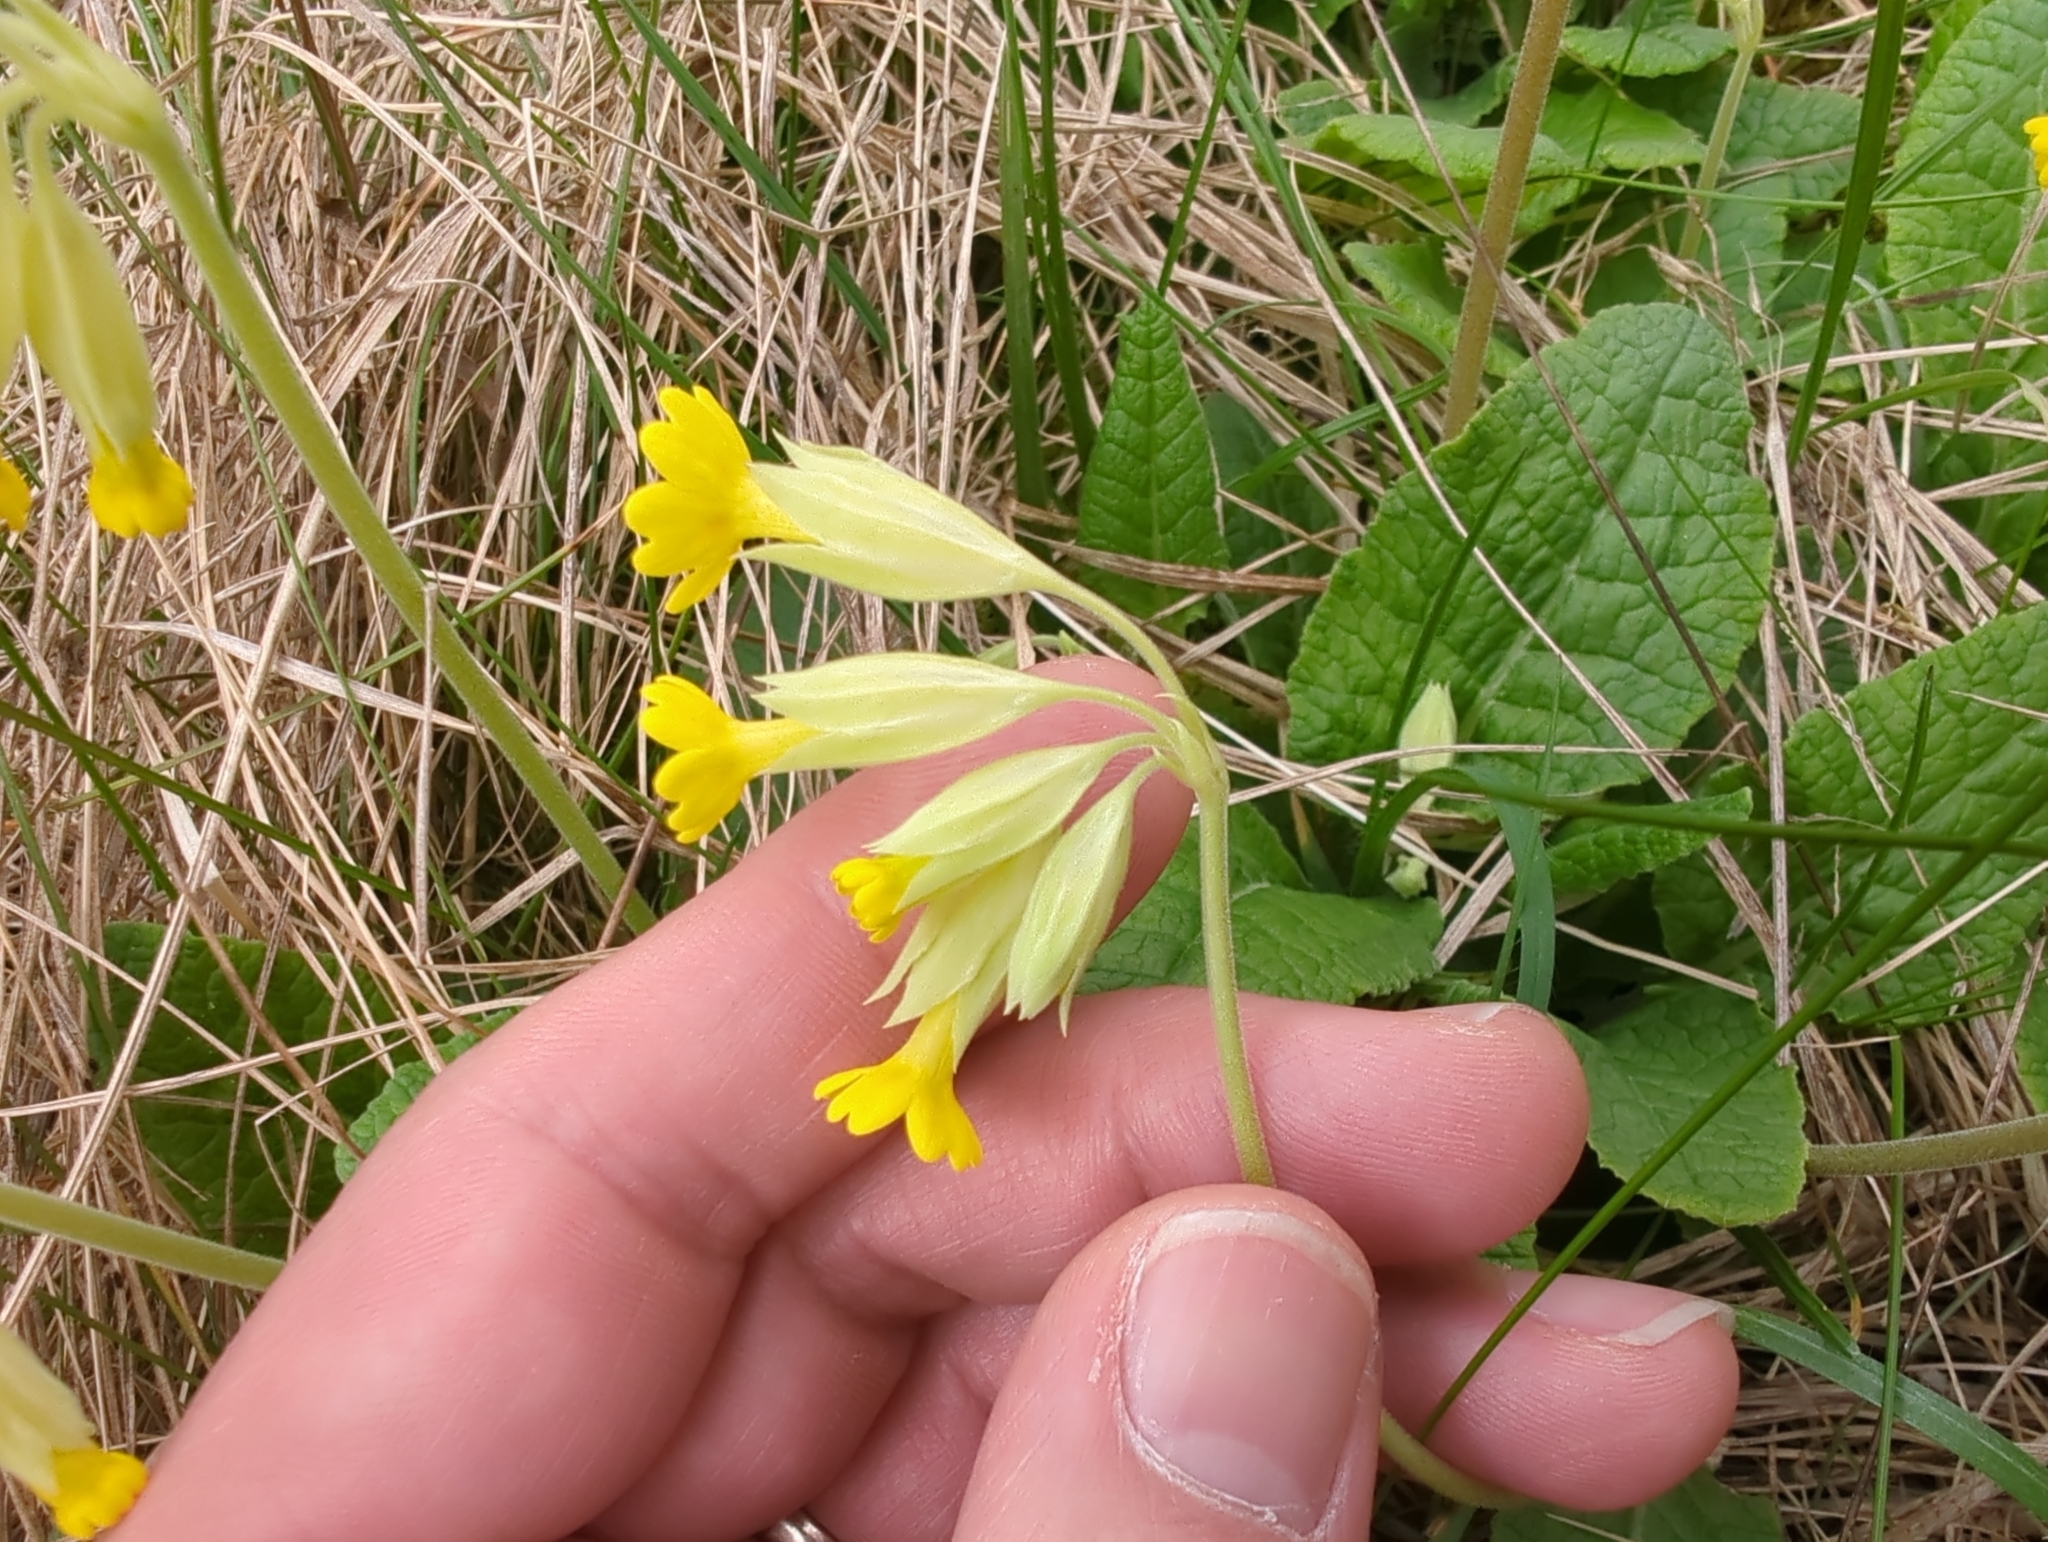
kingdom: Plantae
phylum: Tracheophyta
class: Magnoliopsida
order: Ericales
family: Primulaceae
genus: Primula
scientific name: Primula veris
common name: Cowslip
